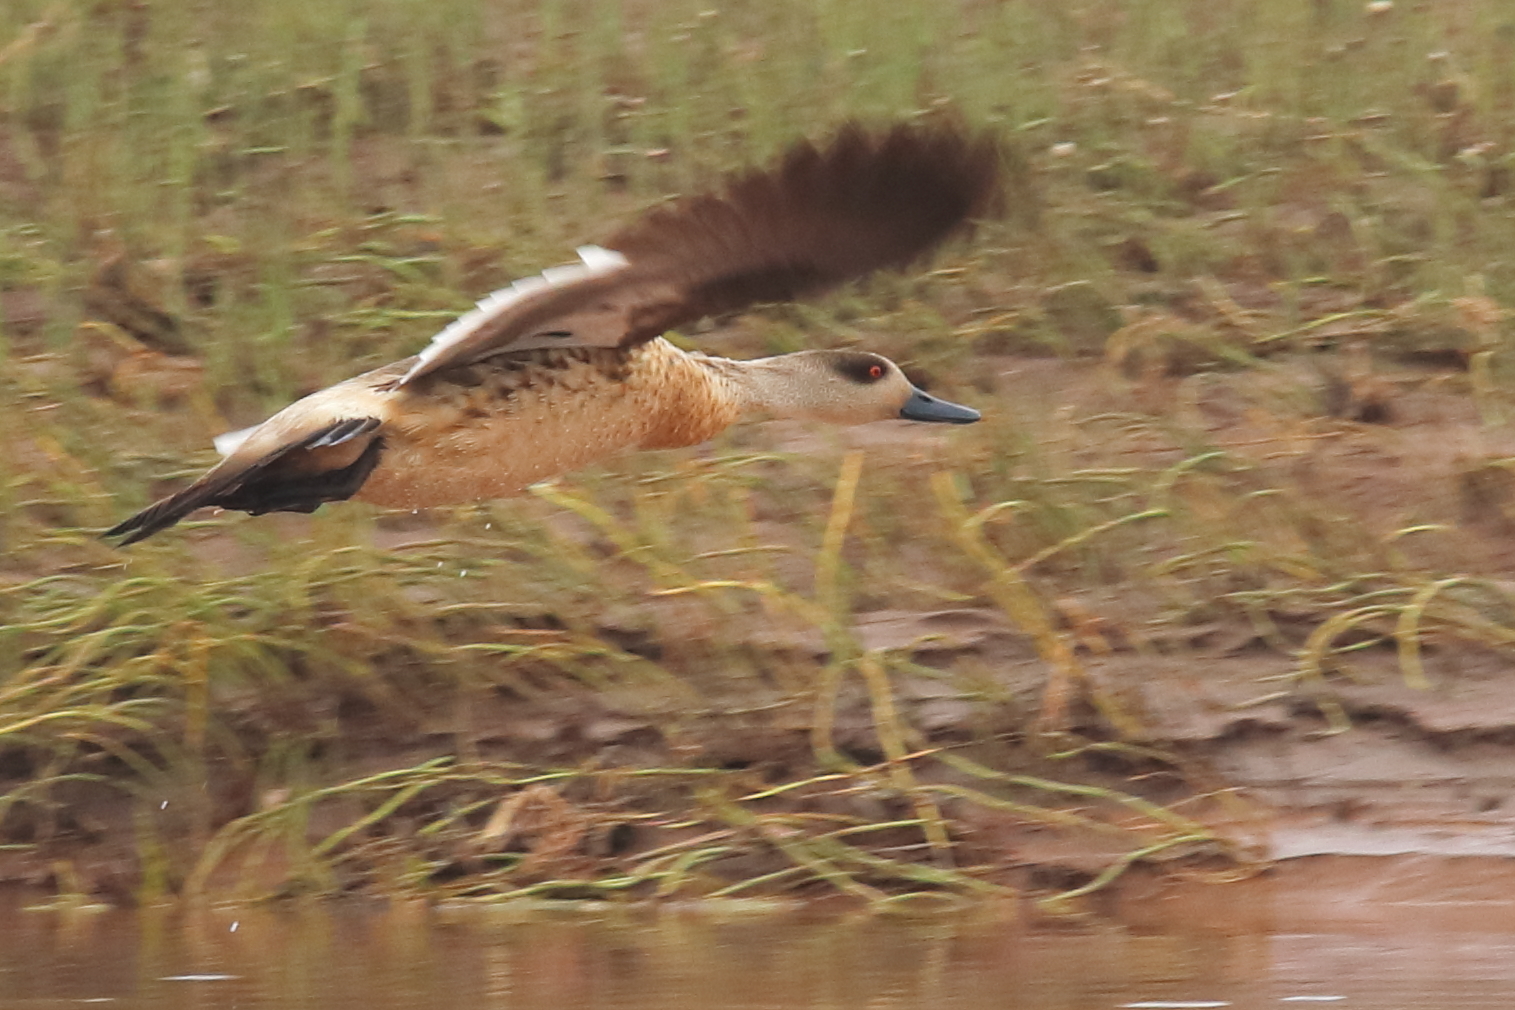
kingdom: Animalia
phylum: Chordata
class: Aves
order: Anseriformes
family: Anatidae
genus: Lophonetta
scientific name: Lophonetta specularioides
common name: Crested duck
